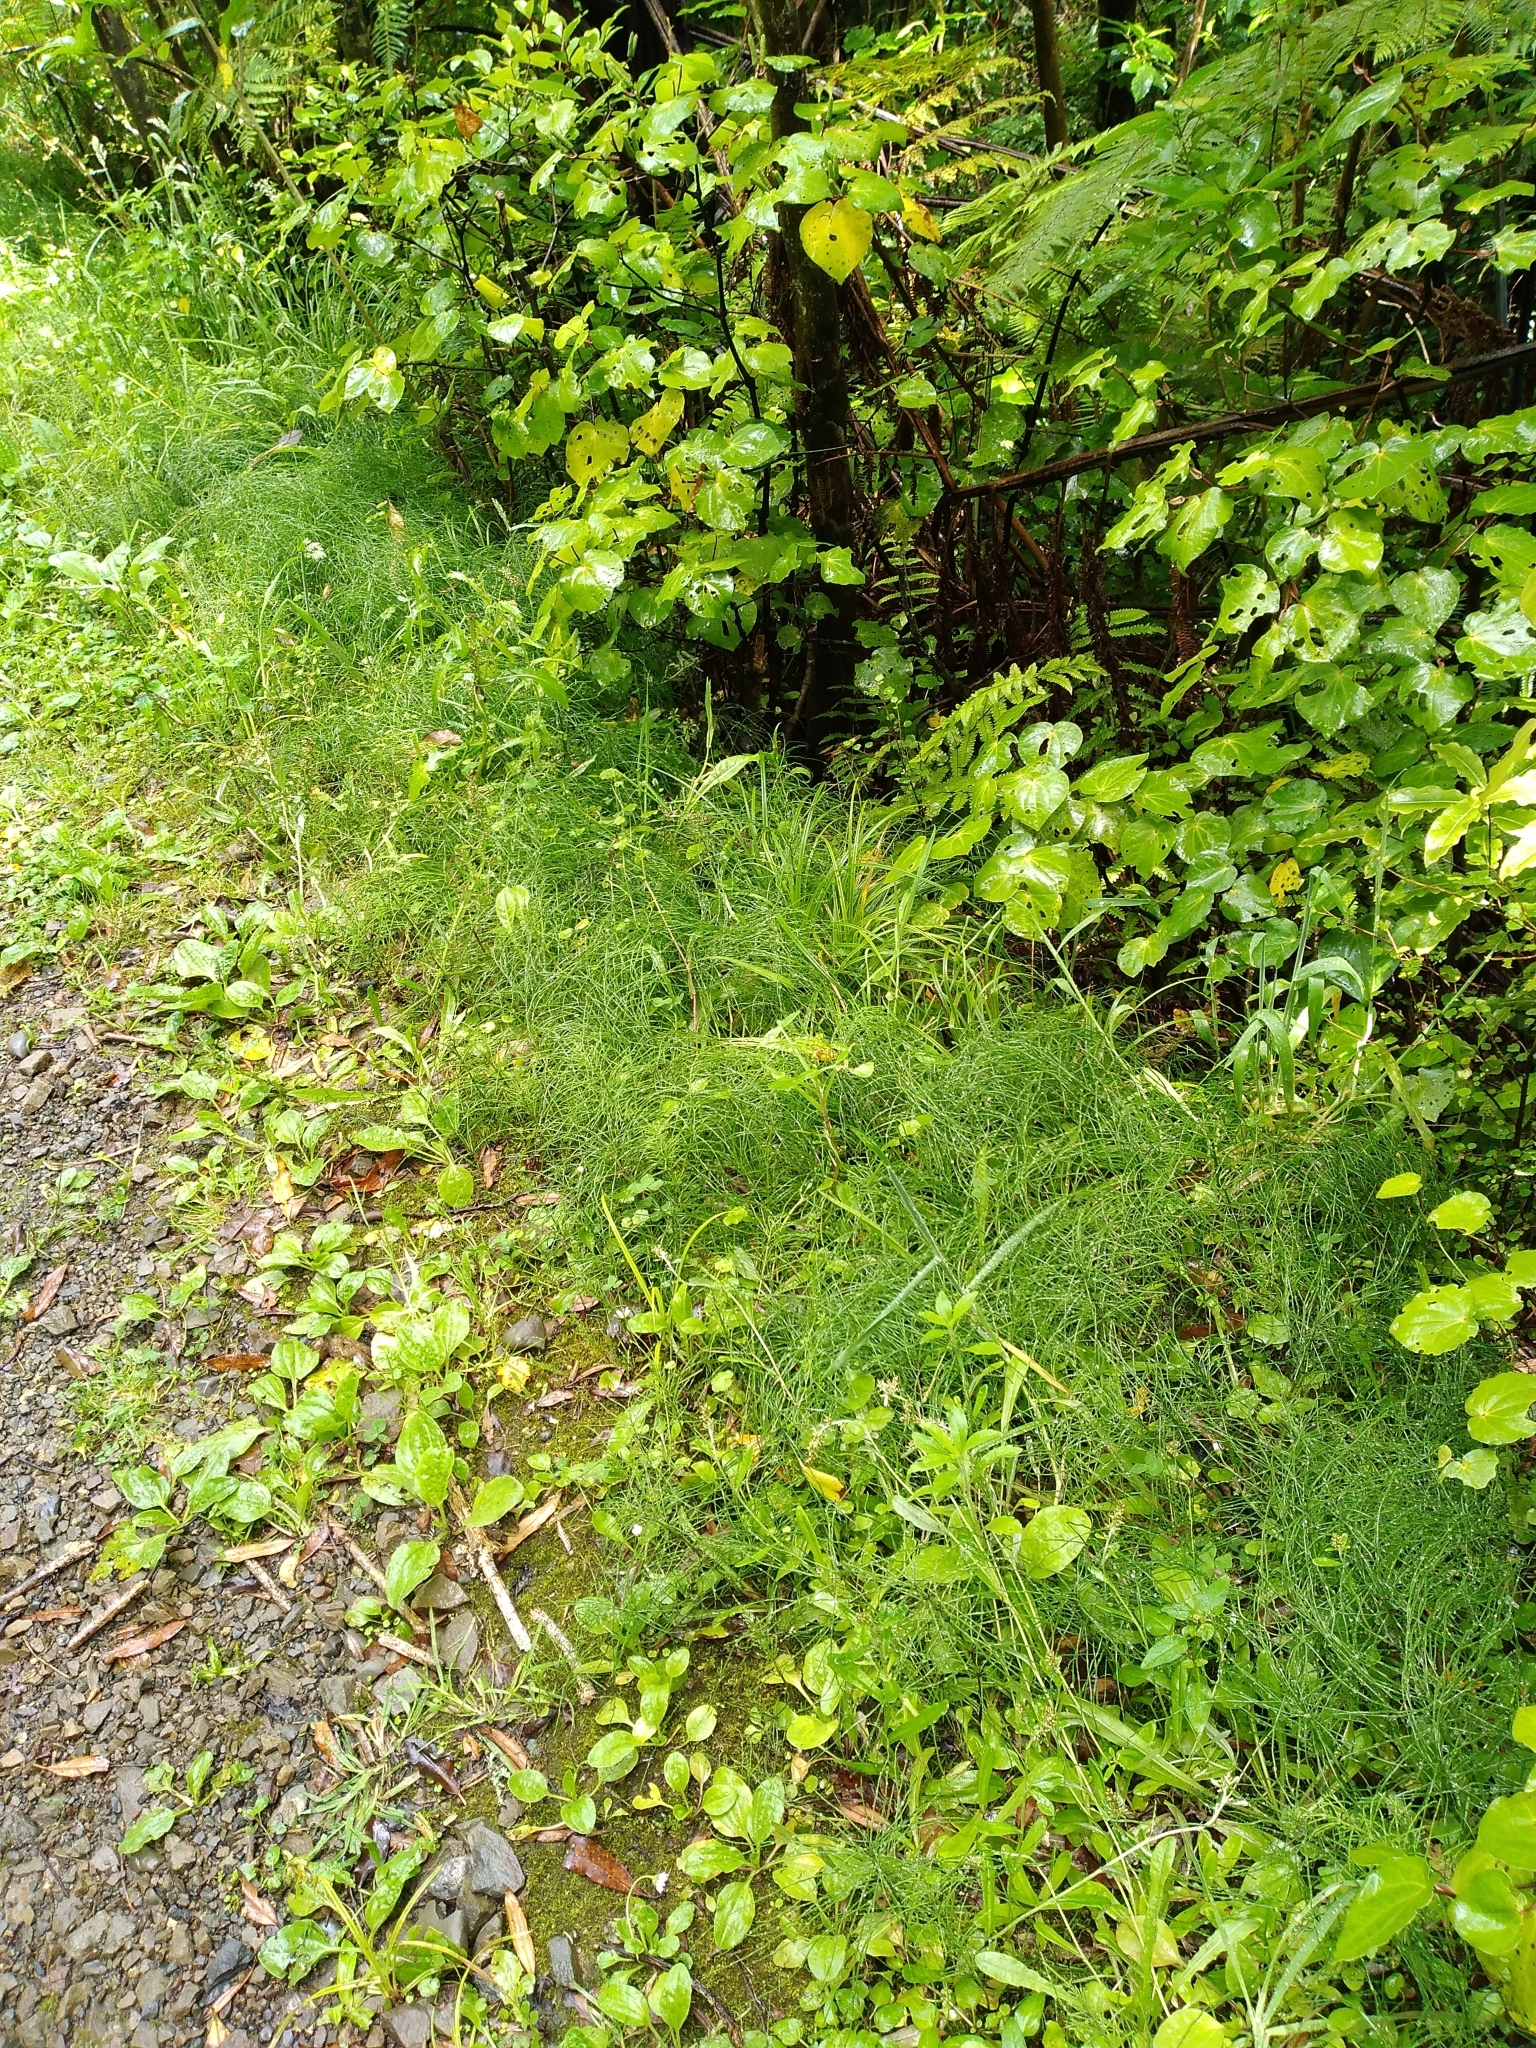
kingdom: Plantae
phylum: Tracheophyta
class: Polypodiopsida
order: Equisetales
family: Equisetaceae
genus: Equisetum
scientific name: Equisetum arvense
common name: Field horsetail
